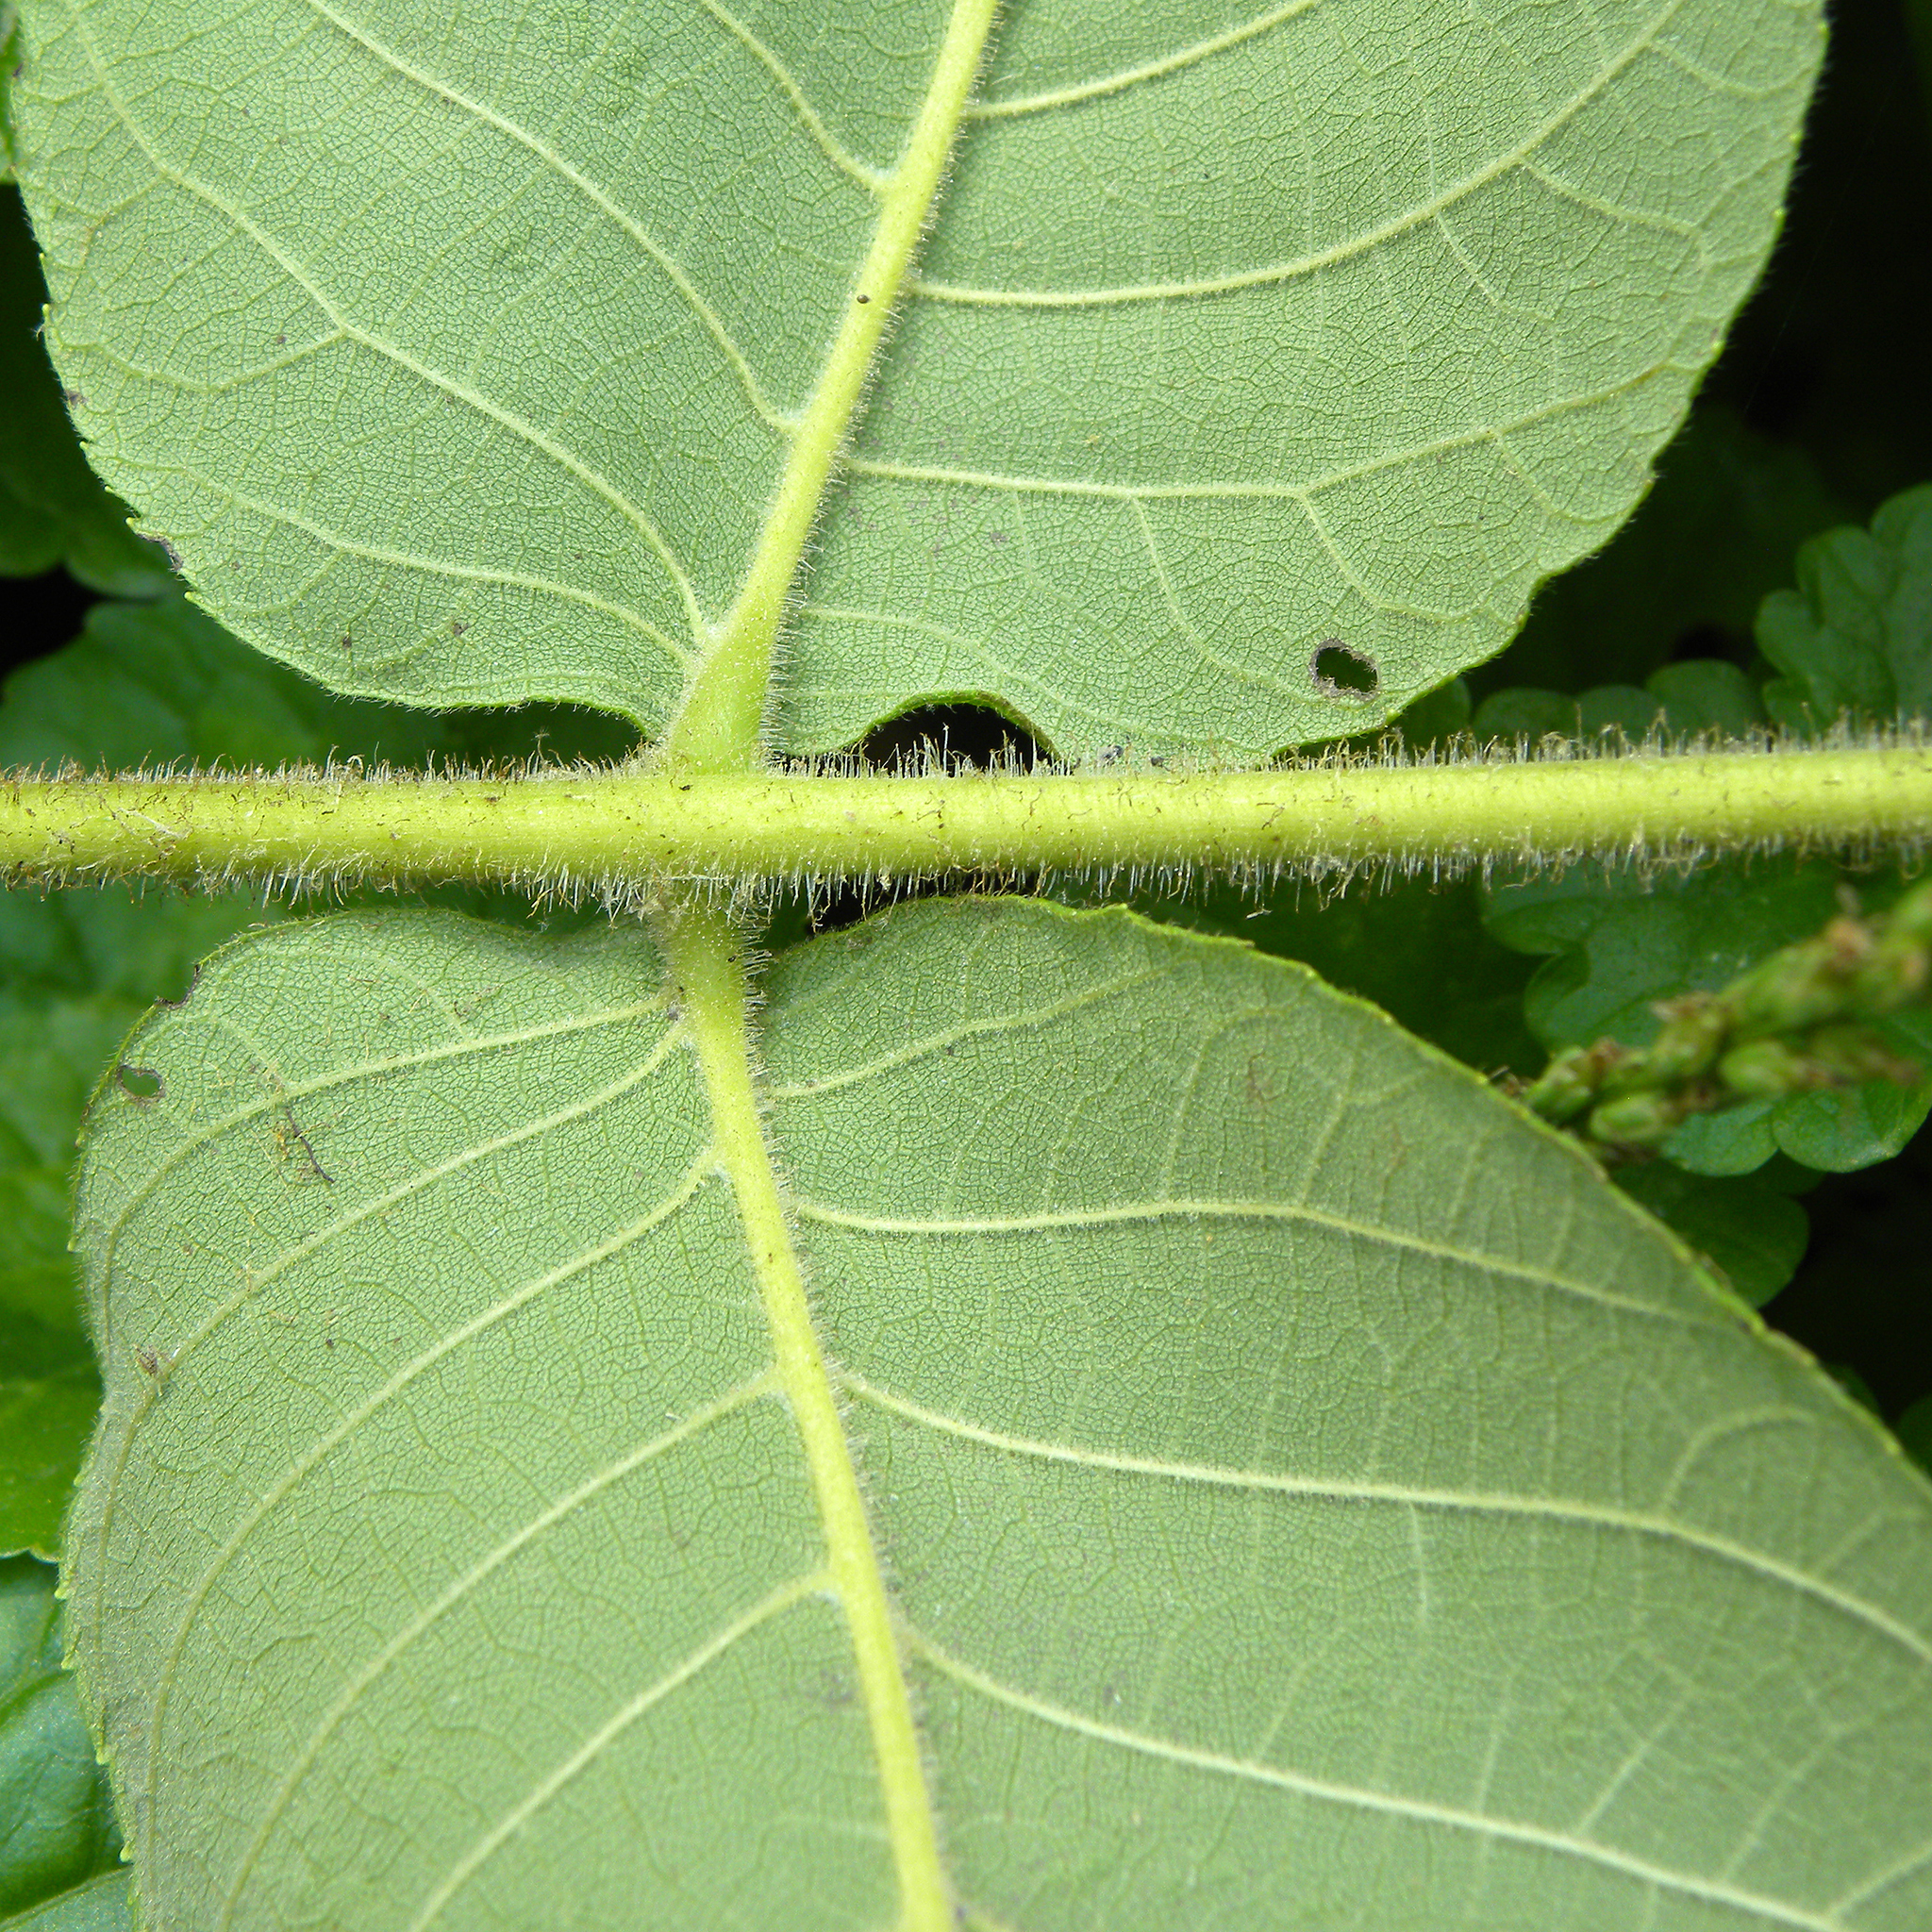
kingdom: Plantae
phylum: Tracheophyta
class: Magnoliopsida
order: Fagales
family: Juglandaceae
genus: Juglans
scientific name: Juglans cinerea
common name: Butternut
